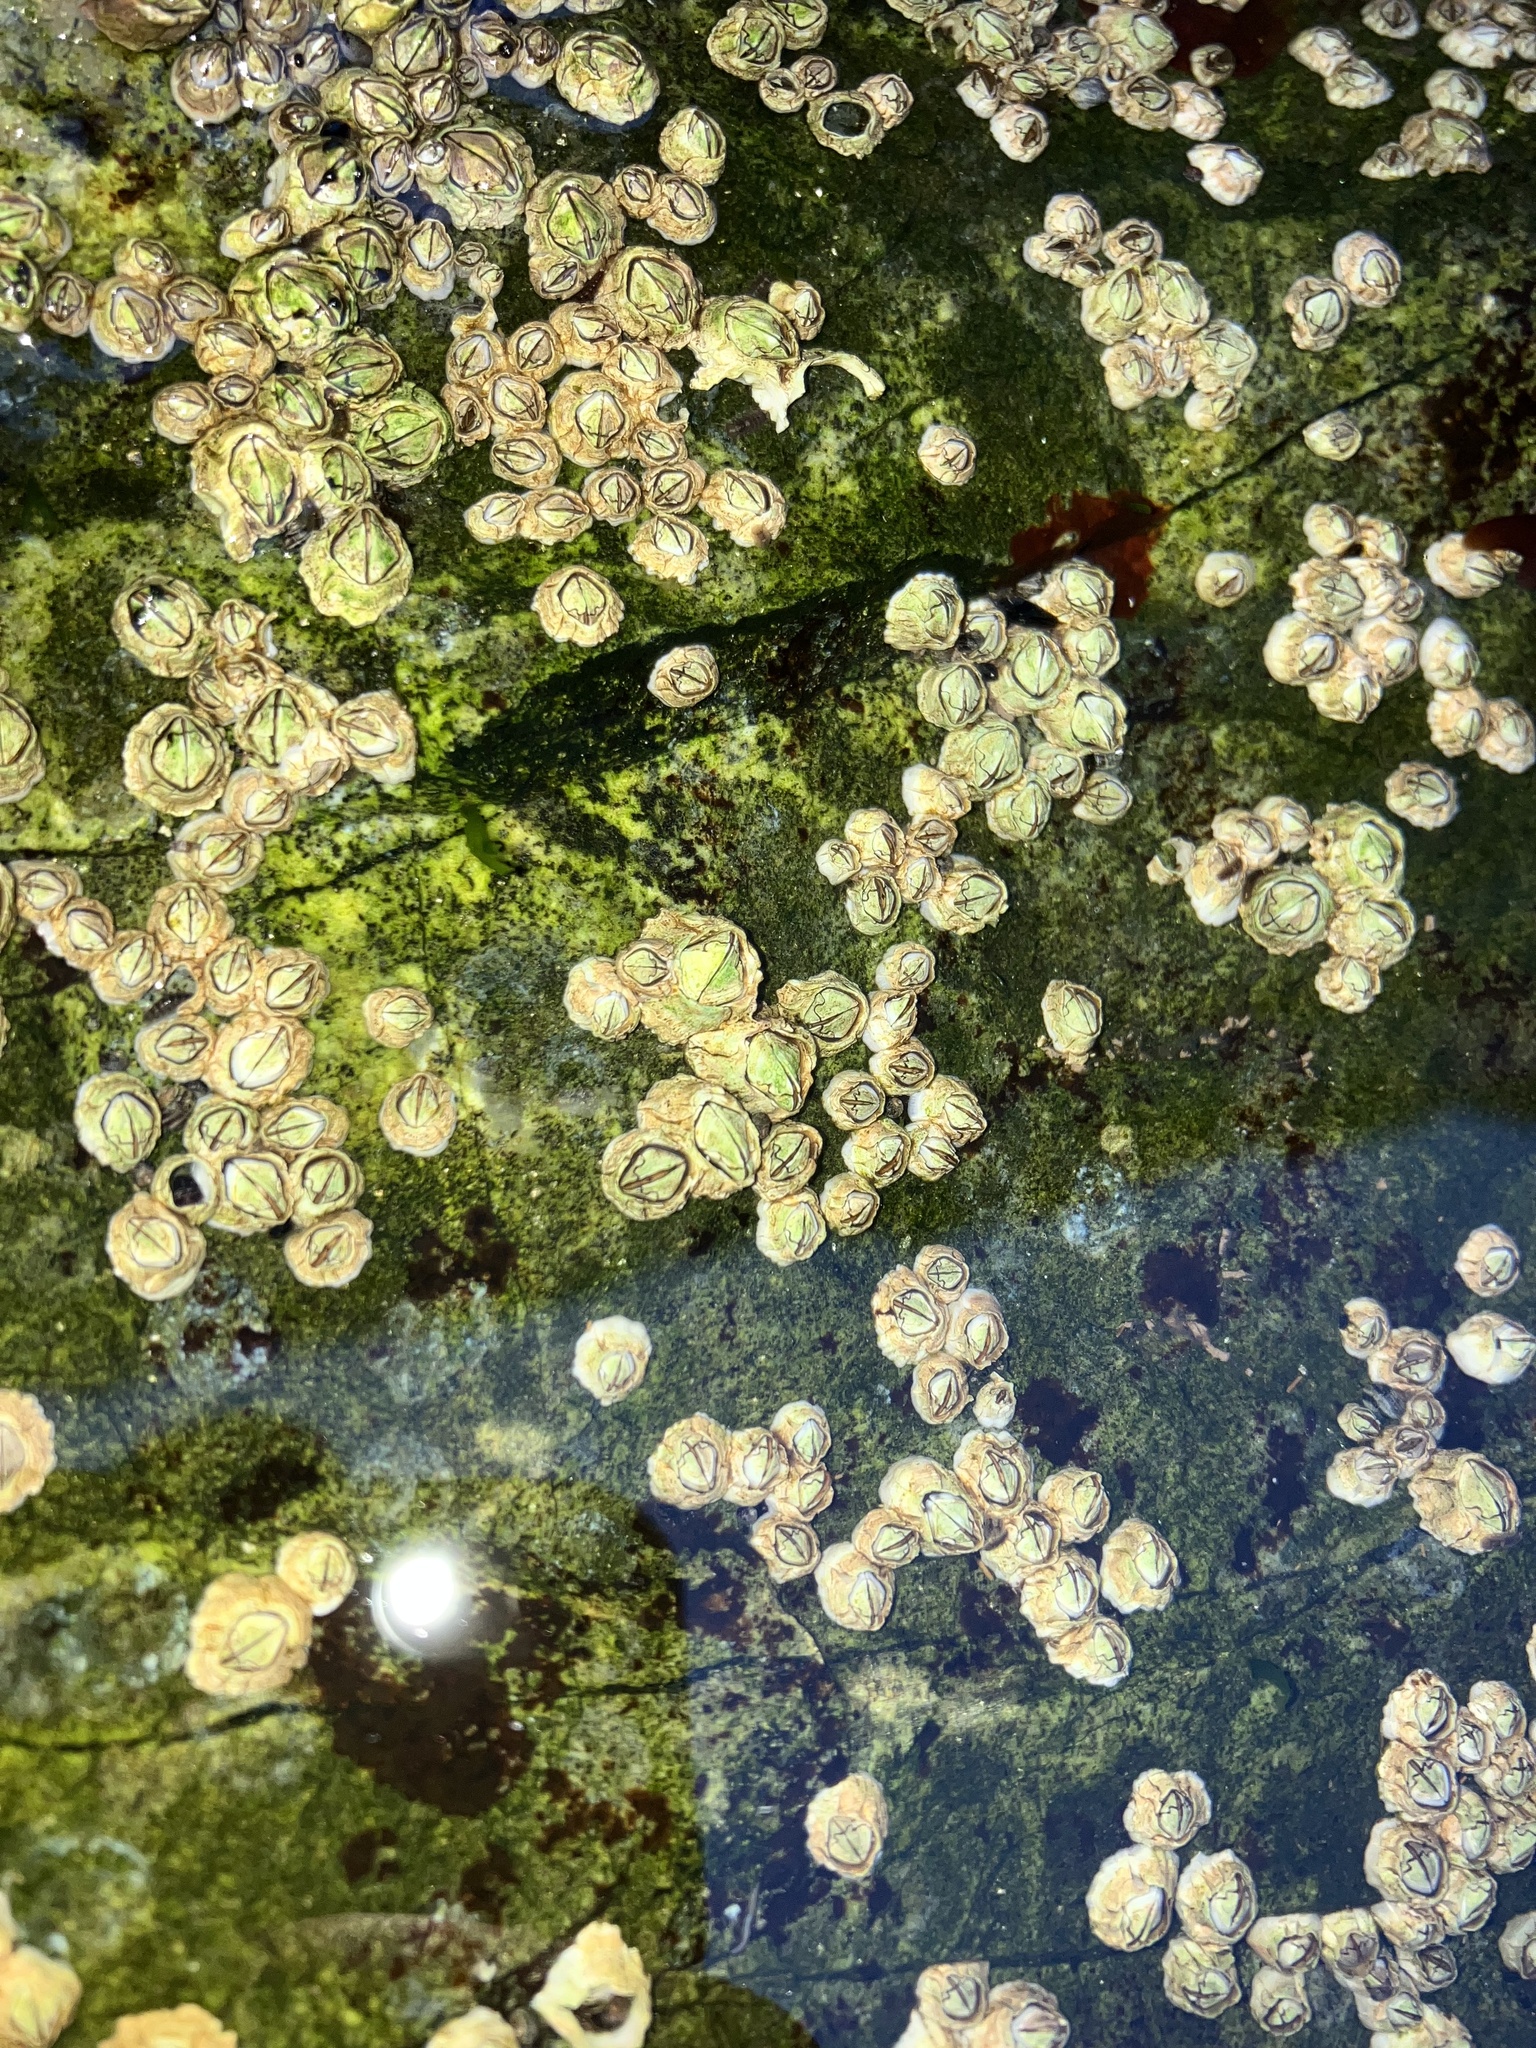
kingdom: Animalia
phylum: Arthropoda
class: Maxillopoda
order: Sessilia
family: Archaeobalanidae
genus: Semibalanus
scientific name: Semibalanus balanoides
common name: Acorn barnacle
